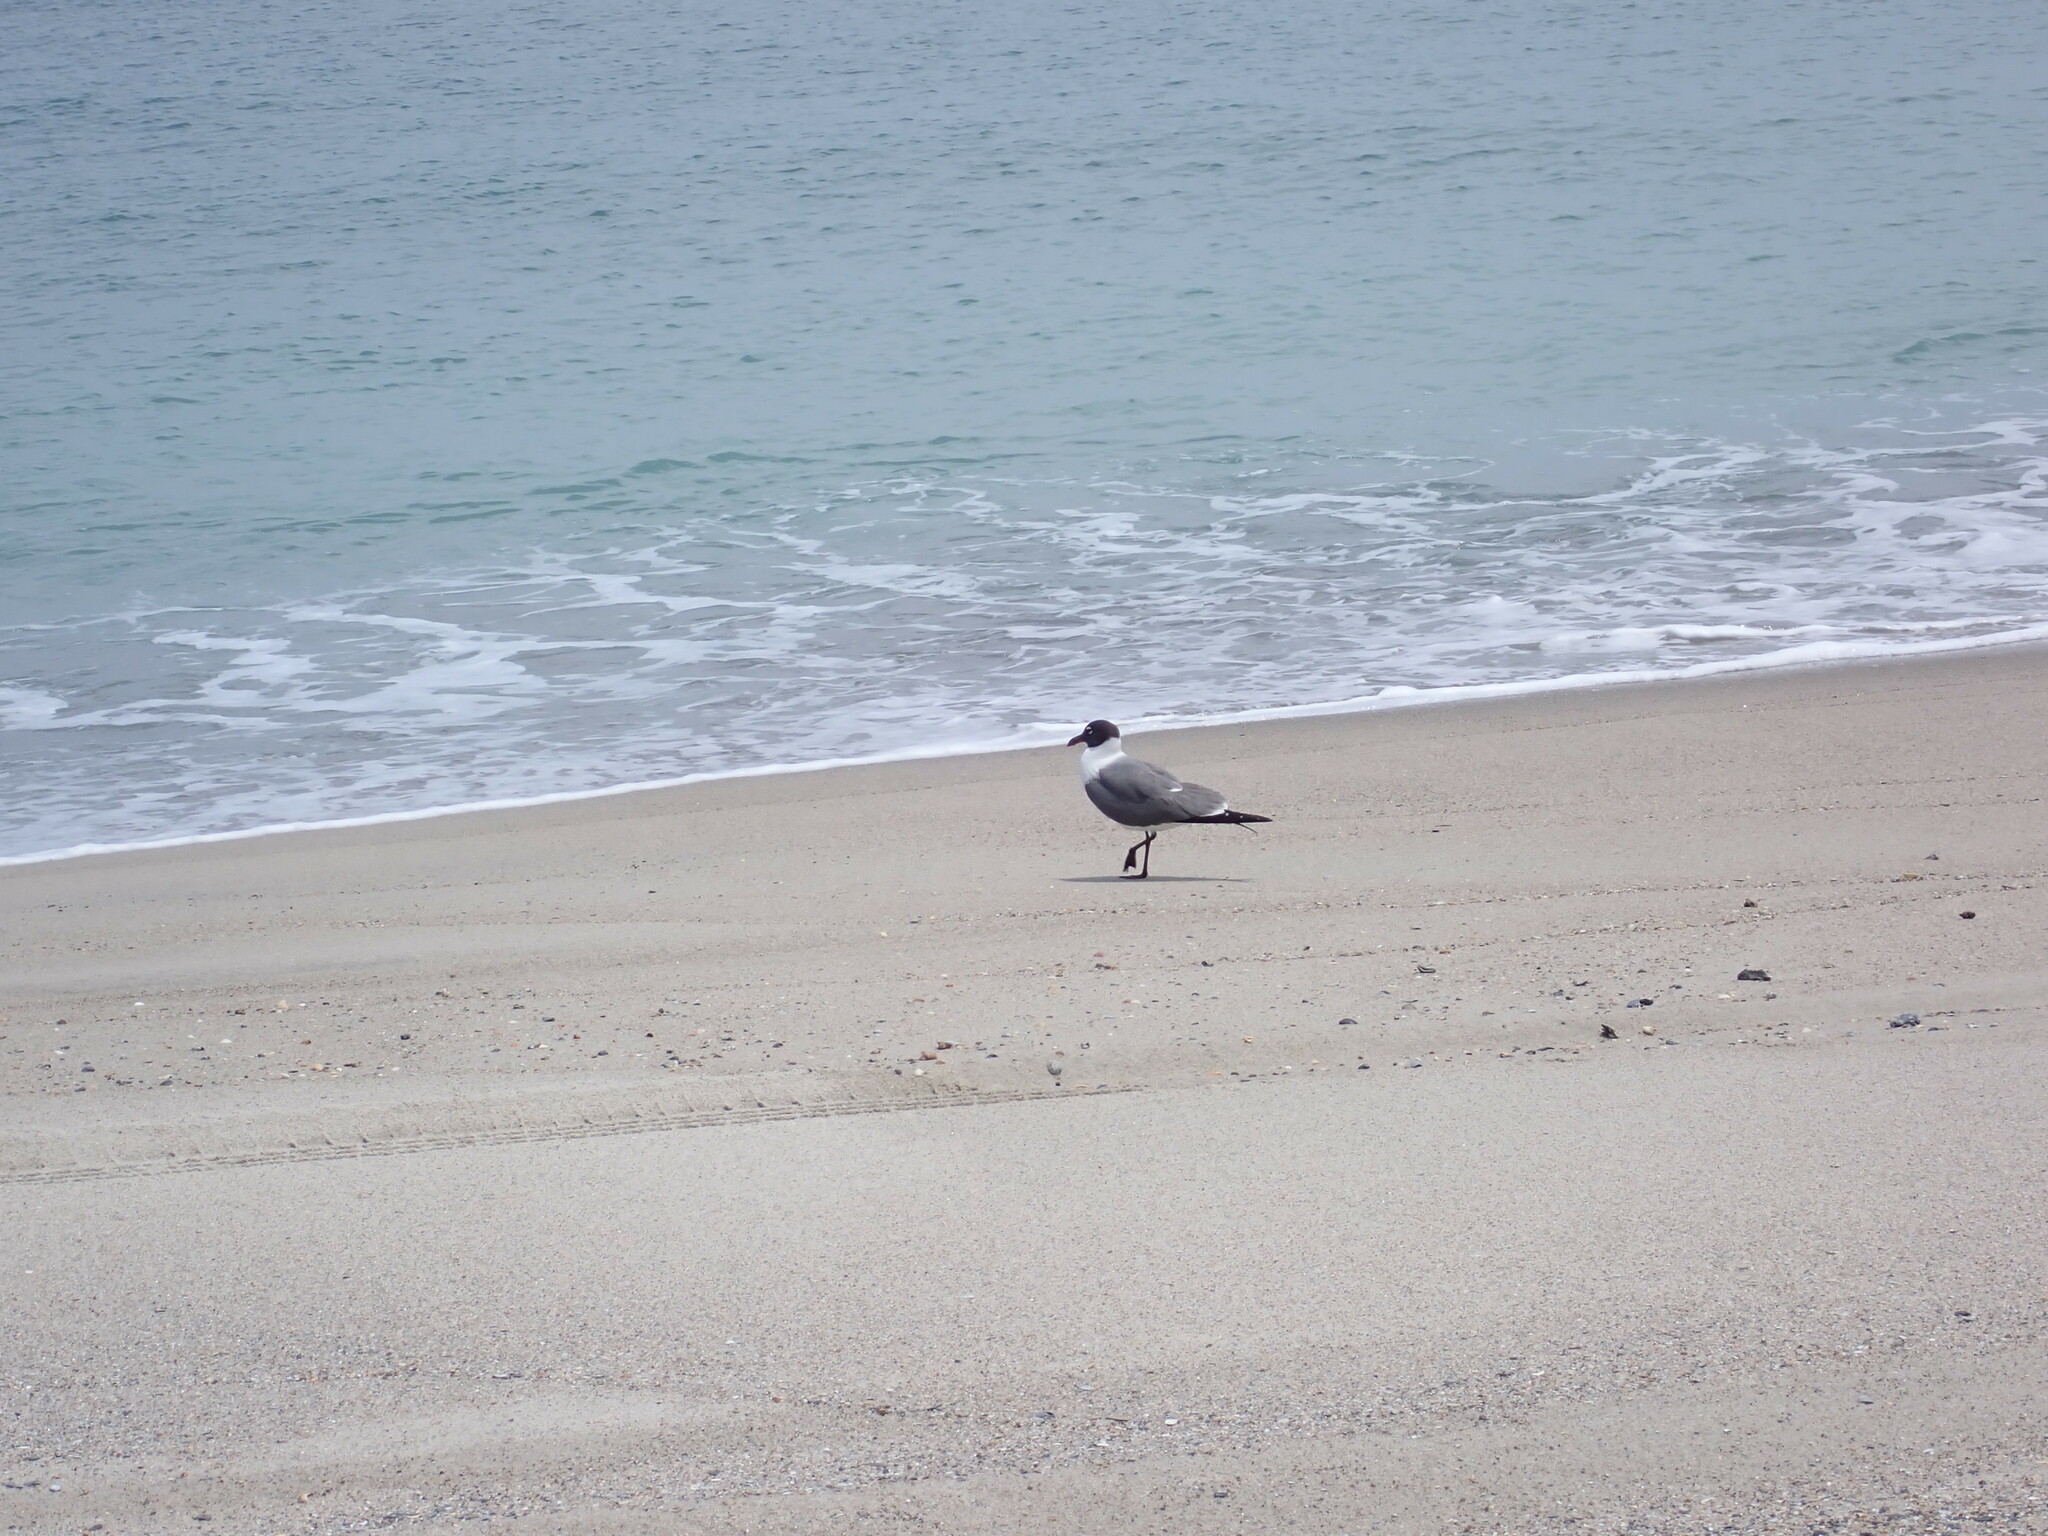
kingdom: Animalia
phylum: Chordata
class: Aves
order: Charadriiformes
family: Laridae
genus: Leucophaeus
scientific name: Leucophaeus atricilla
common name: Laughing gull
